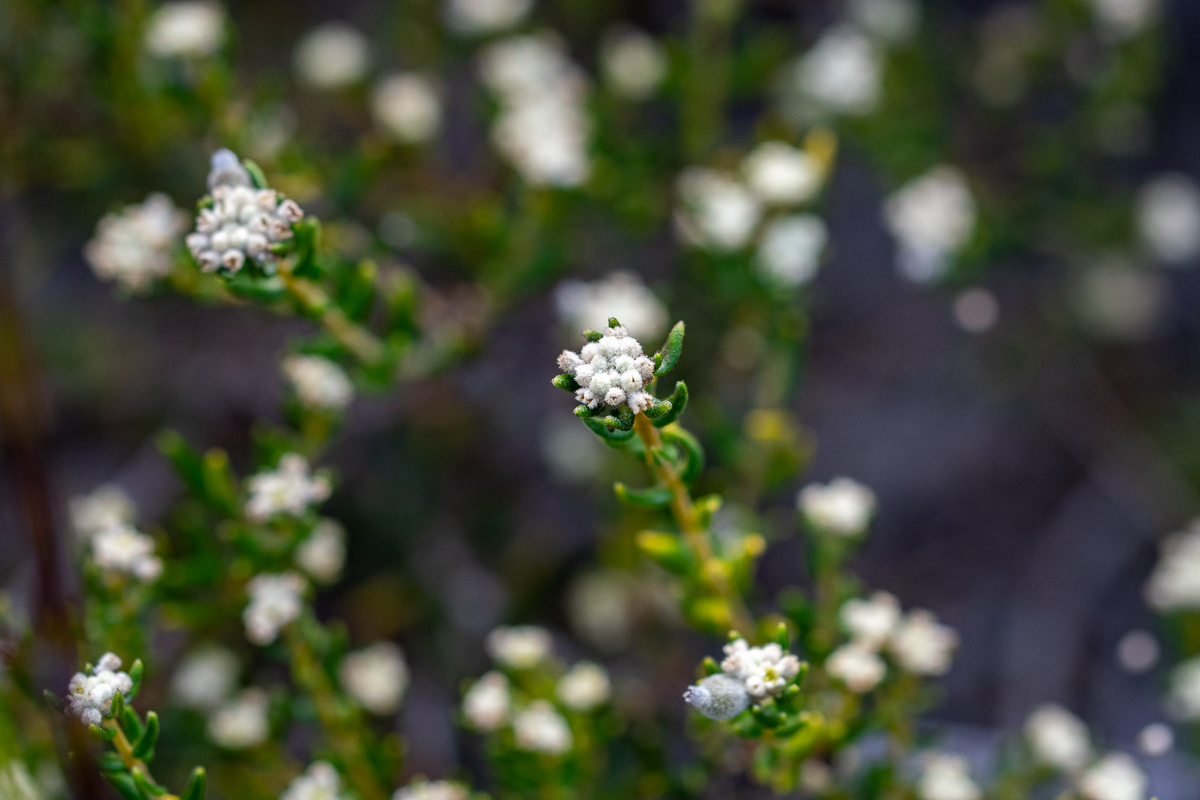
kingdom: Plantae
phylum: Tracheophyta
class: Magnoliopsida
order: Rosales
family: Rhamnaceae
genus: Phylica
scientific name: Phylica lasiocarpa
